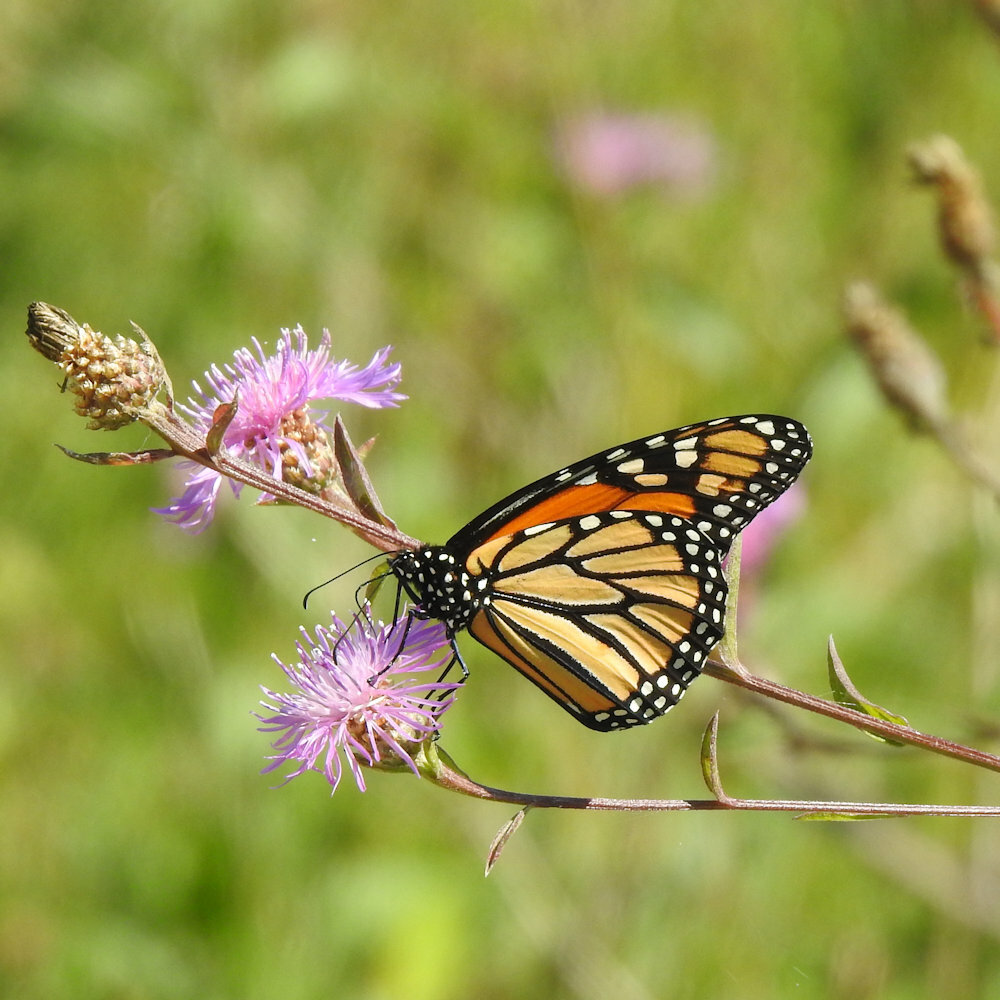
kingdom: Animalia
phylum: Arthropoda
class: Insecta
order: Lepidoptera
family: Nymphalidae
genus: Danaus
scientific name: Danaus plexippus
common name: Monarch
